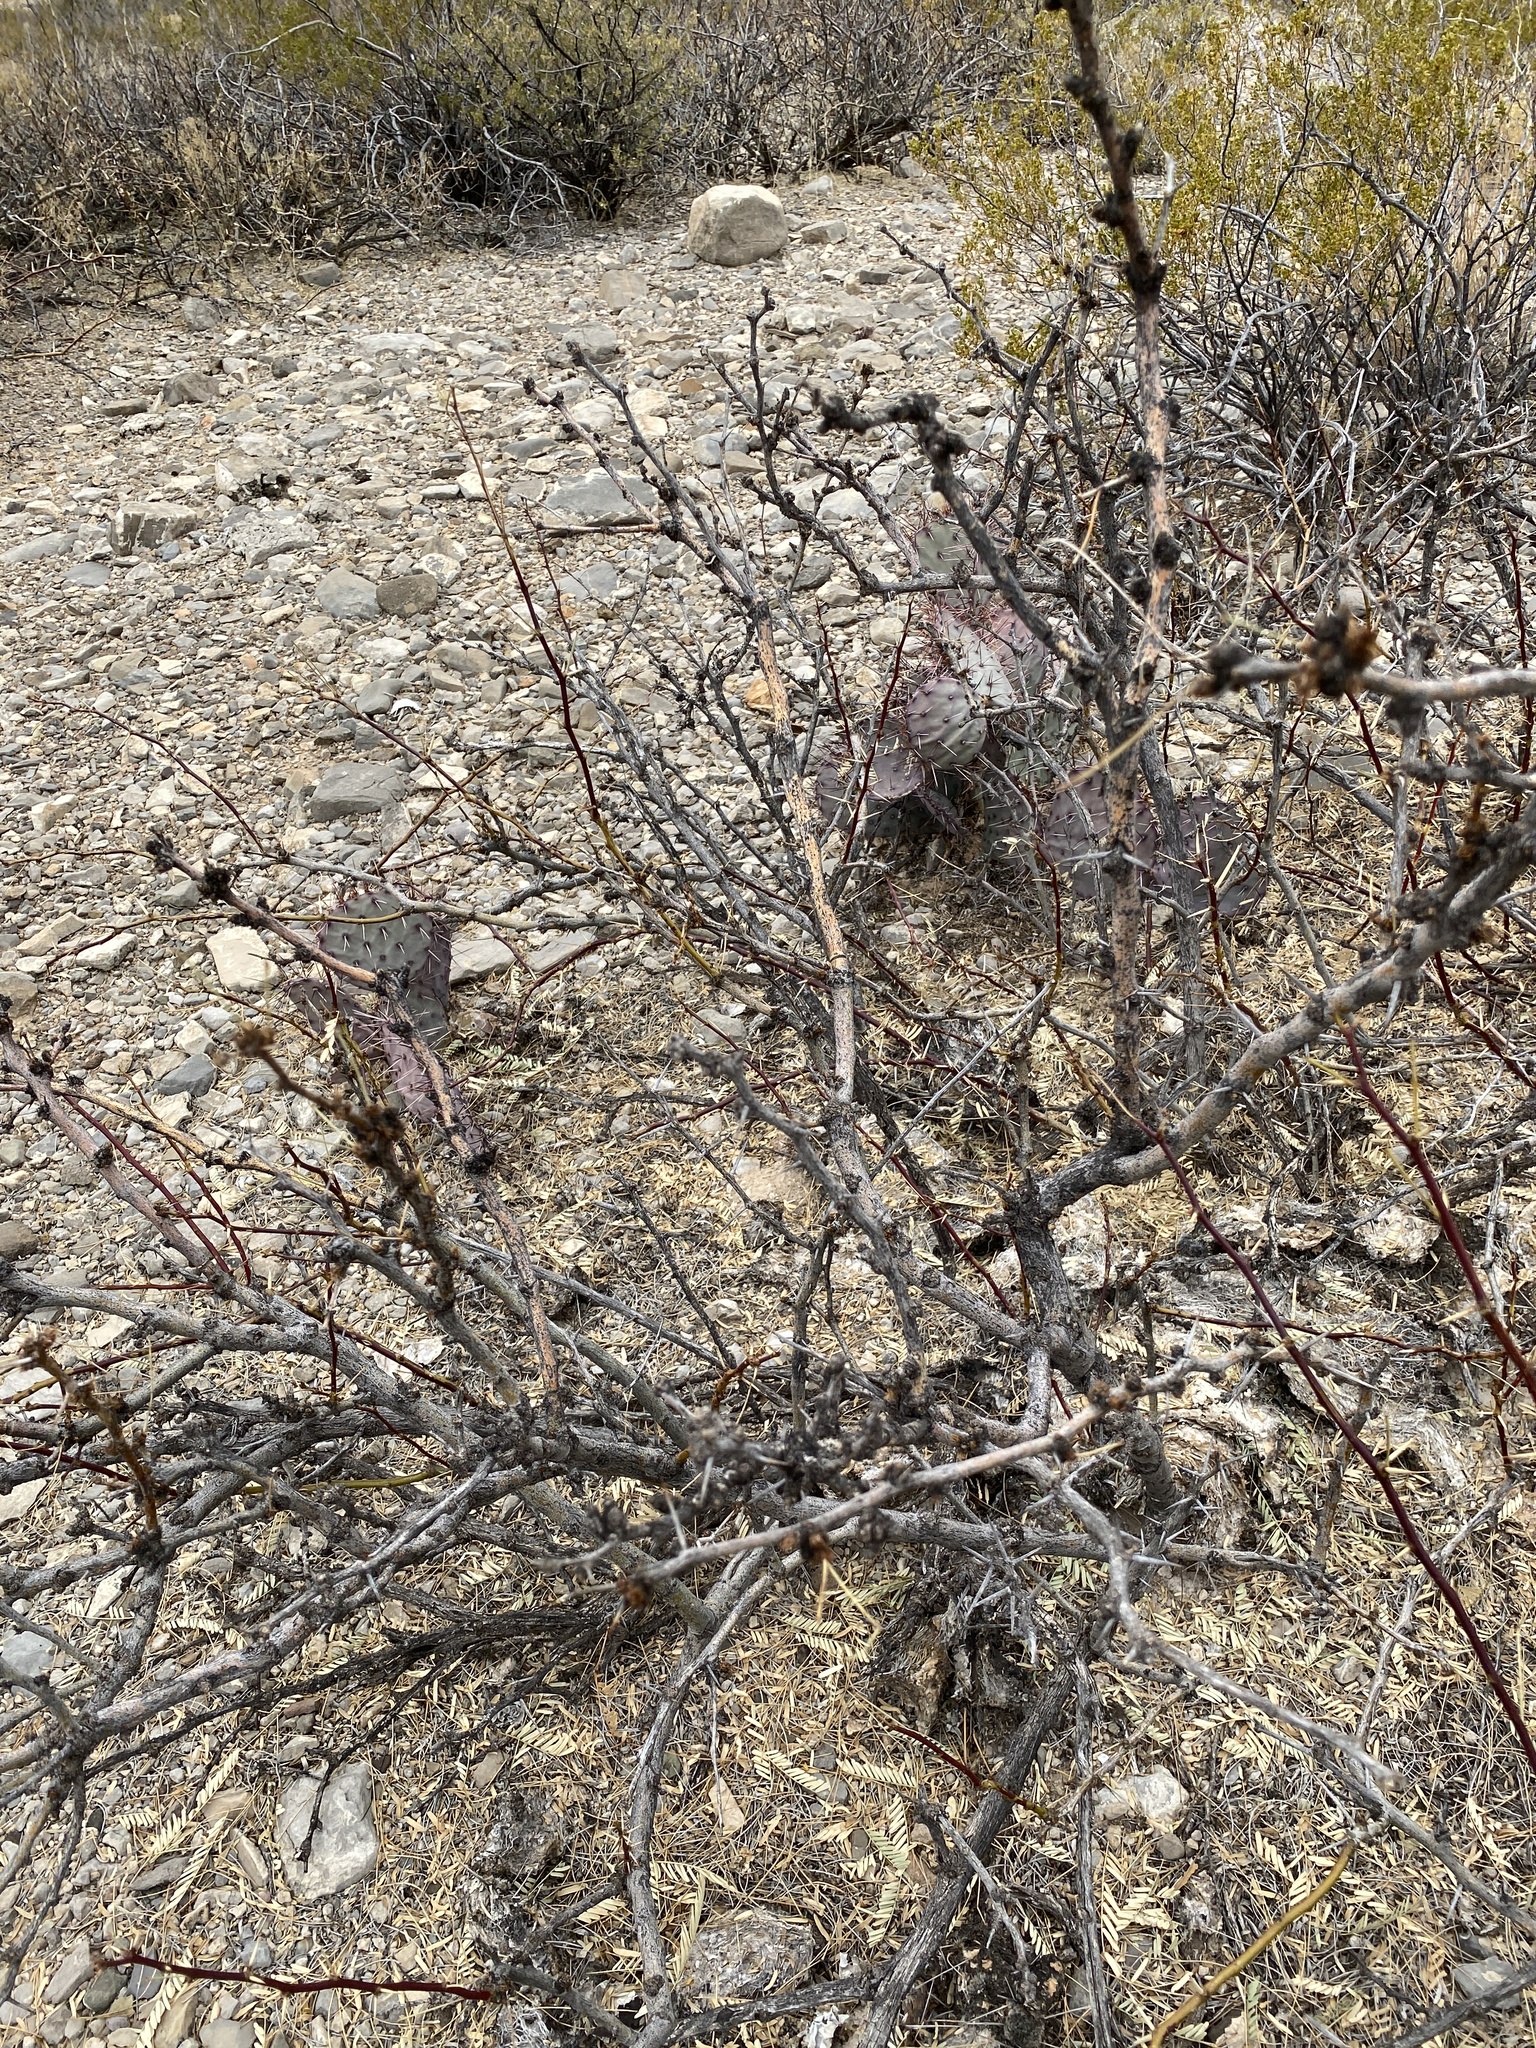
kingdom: Plantae
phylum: Tracheophyta
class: Magnoliopsida
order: Fabales
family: Fabaceae
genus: Prosopis
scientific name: Prosopis glandulosa
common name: Honey mesquite
